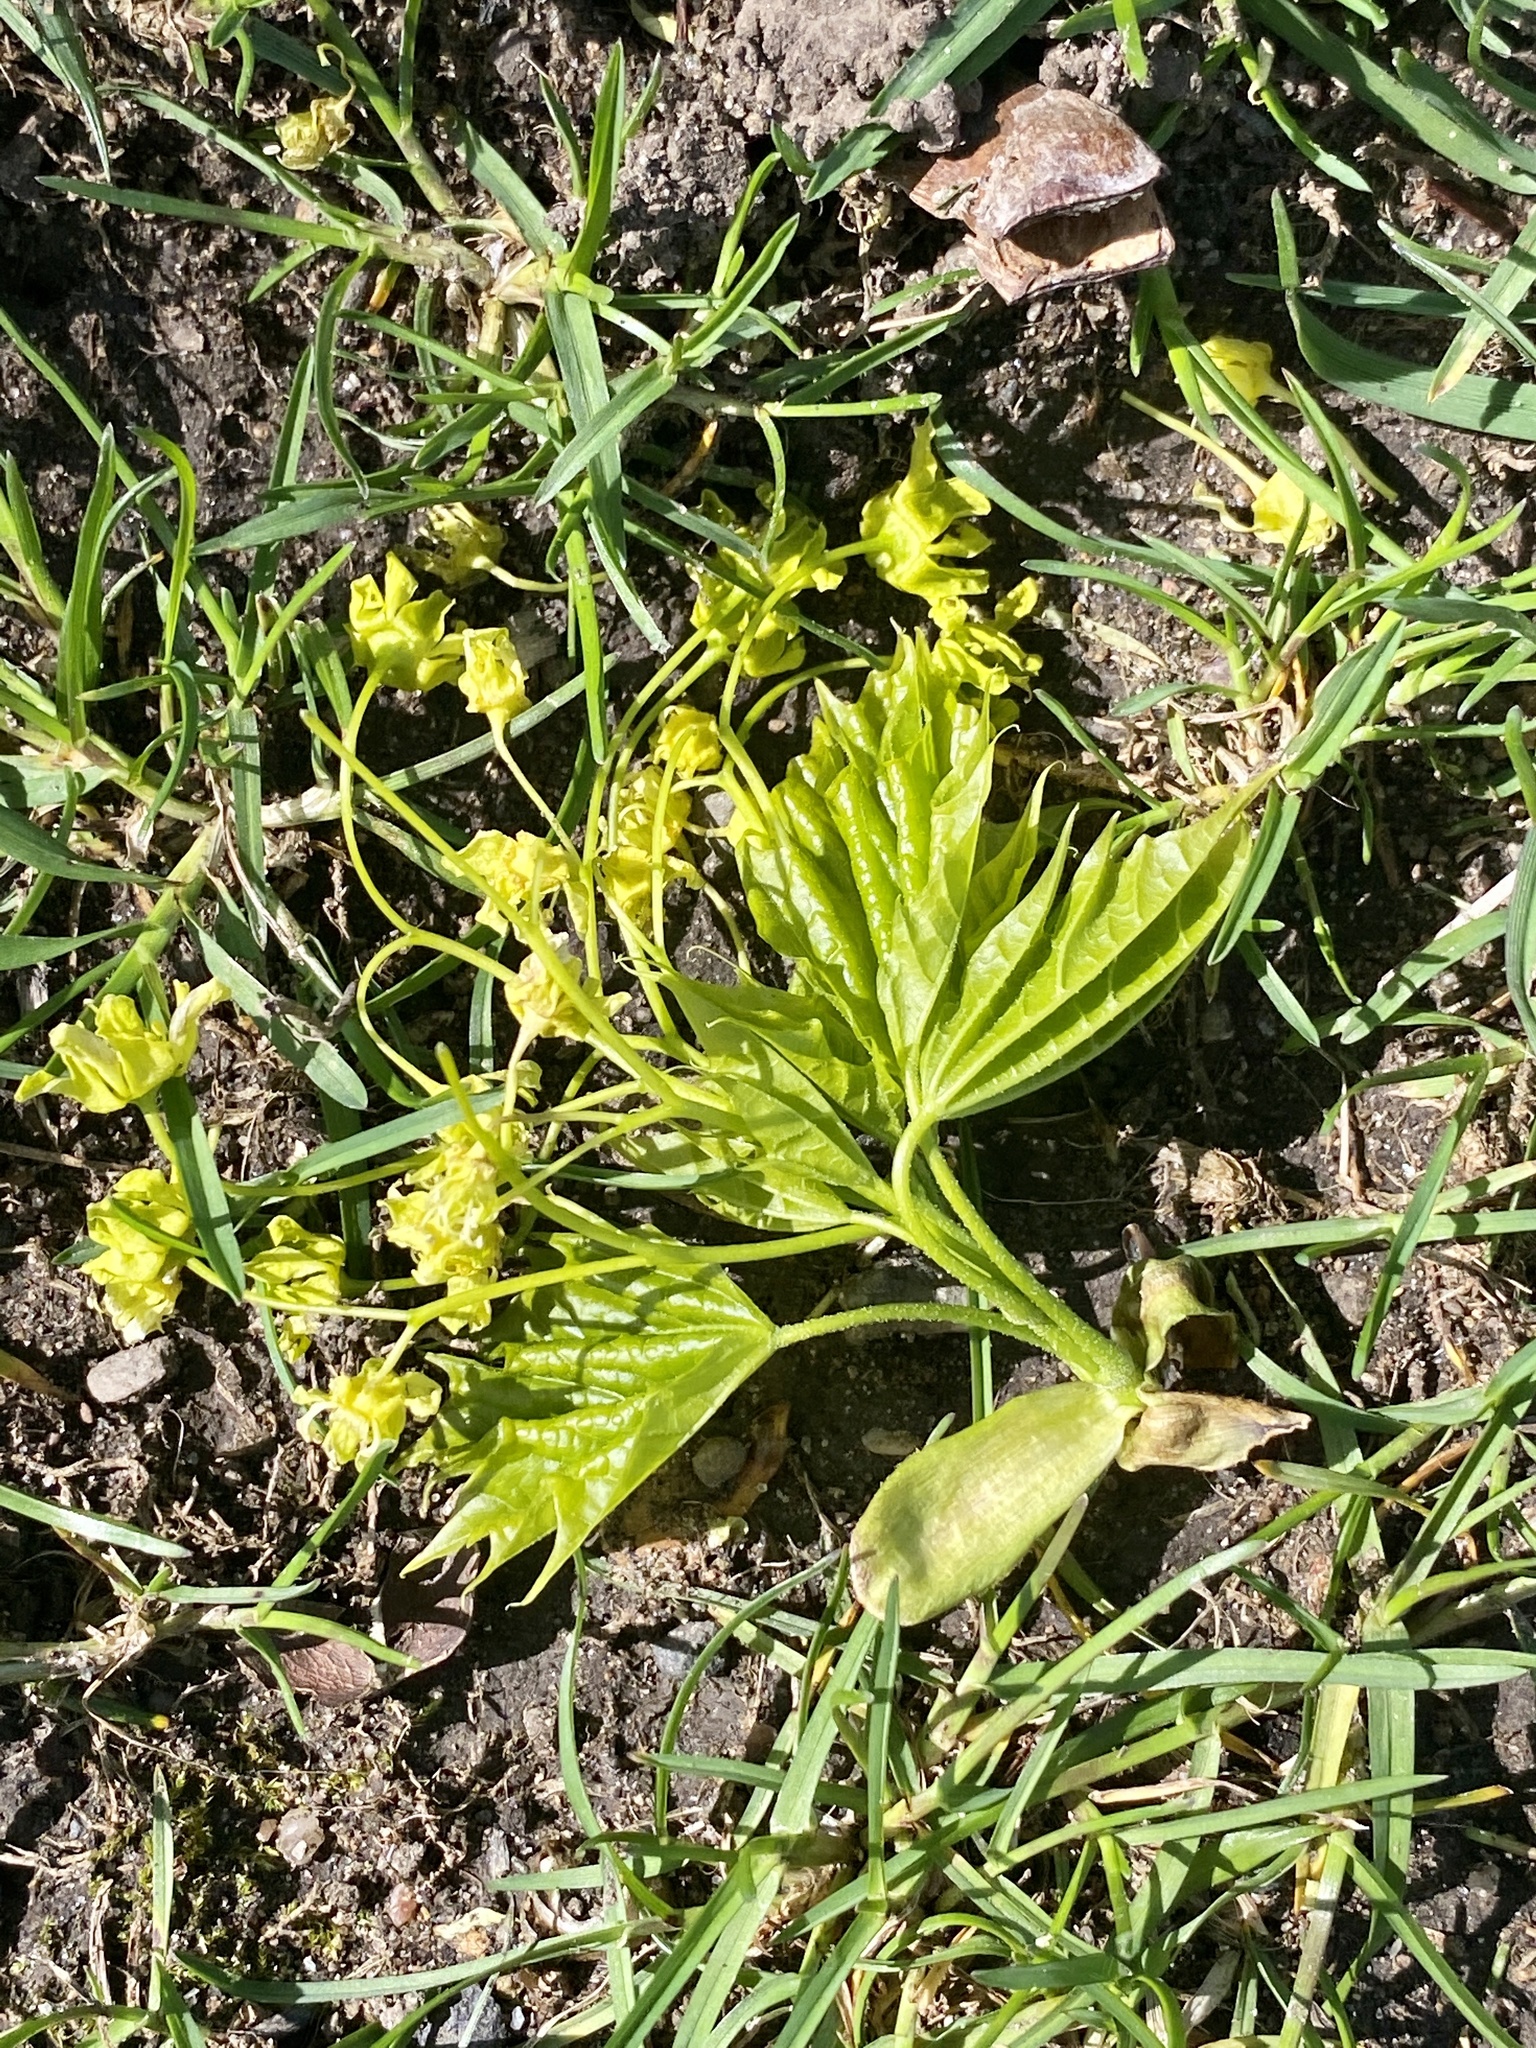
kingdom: Plantae
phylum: Tracheophyta
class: Magnoliopsida
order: Sapindales
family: Sapindaceae
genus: Acer
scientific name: Acer platanoides
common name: Norway maple
